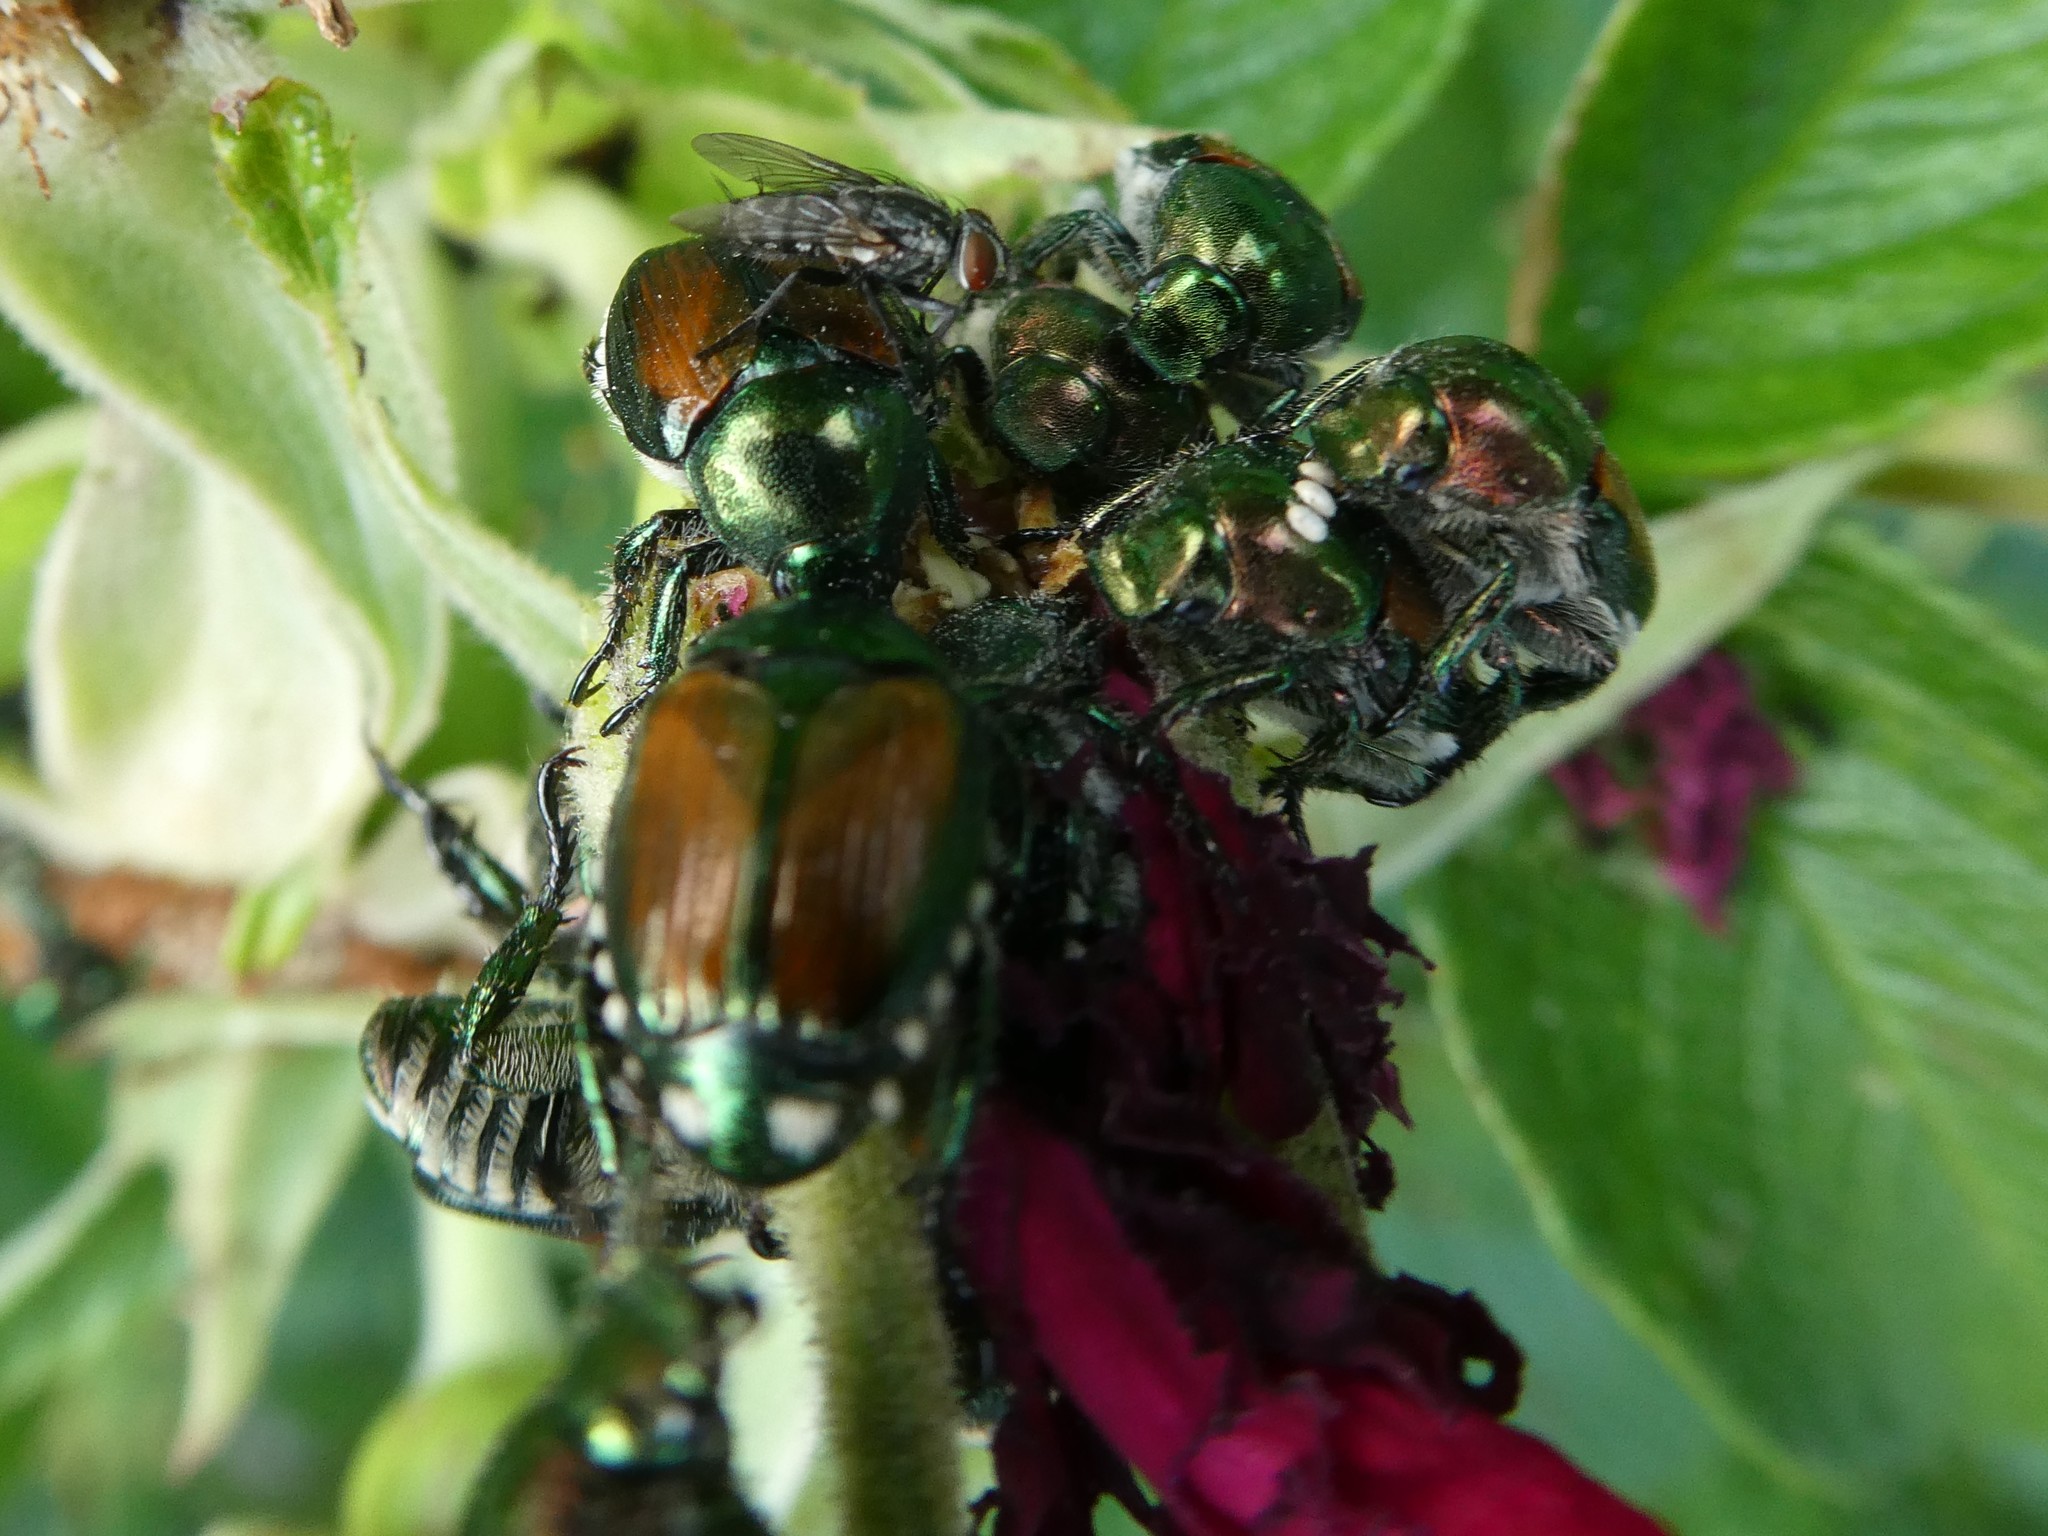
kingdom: Animalia
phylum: Arthropoda
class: Insecta
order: Diptera
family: Tachinidae
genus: Istocheta
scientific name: Istocheta aldrichi
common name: Parasitic wasp
